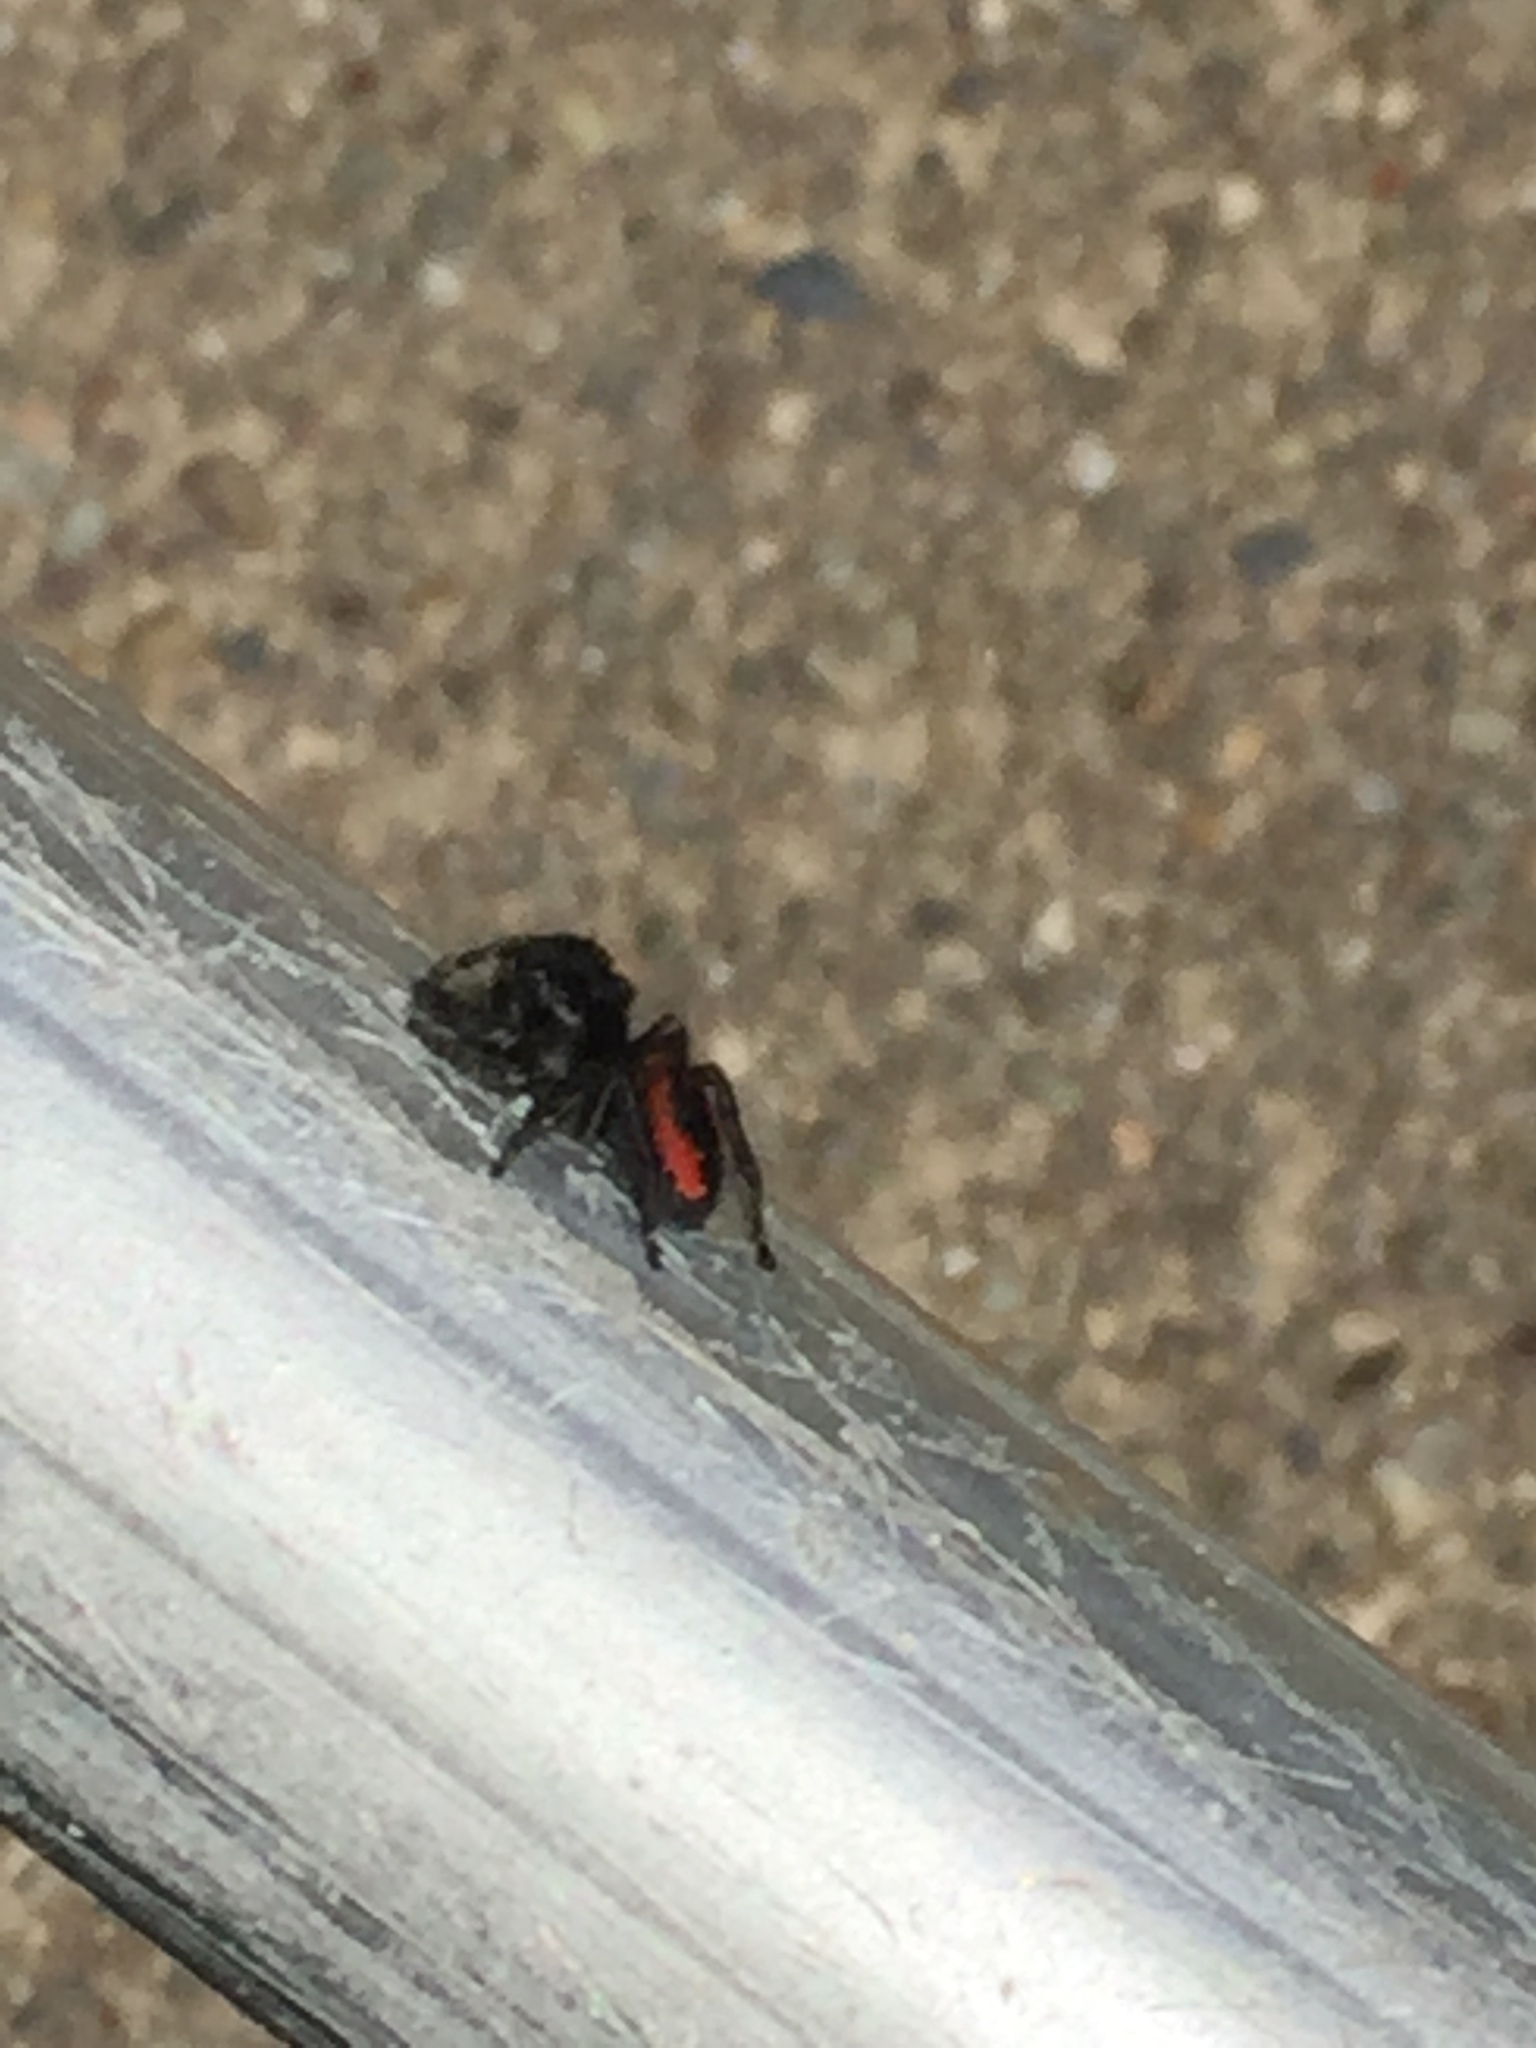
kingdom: Animalia
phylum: Arthropoda
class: Arachnida
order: Araneae
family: Salticidae
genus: Phidippus
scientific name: Phidippus johnsoni
